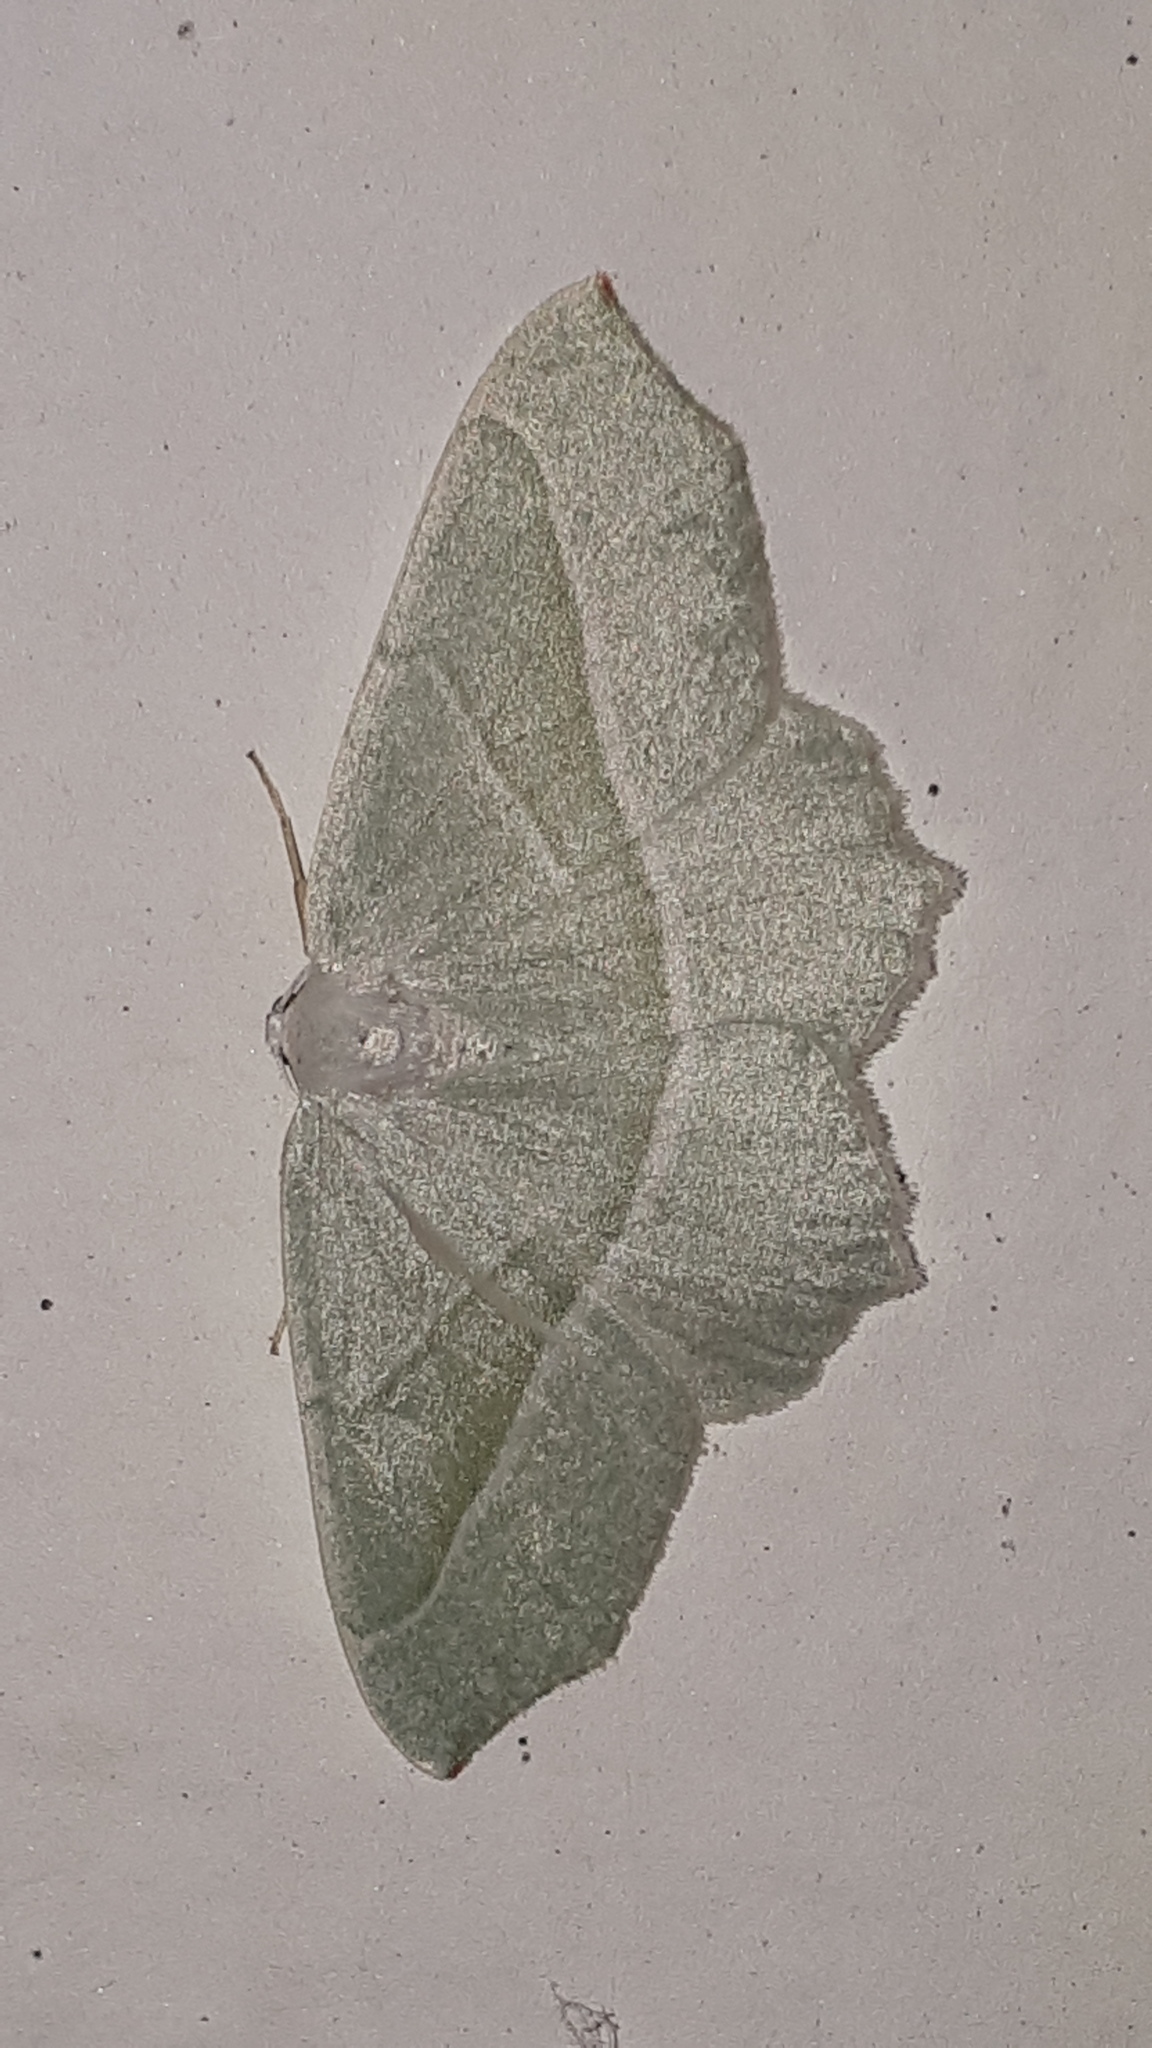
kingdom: Animalia
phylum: Arthropoda
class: Insecta
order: Lepidoptera
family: Geometridae
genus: Campaea
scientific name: Campaea margaritaria
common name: Light emerald
